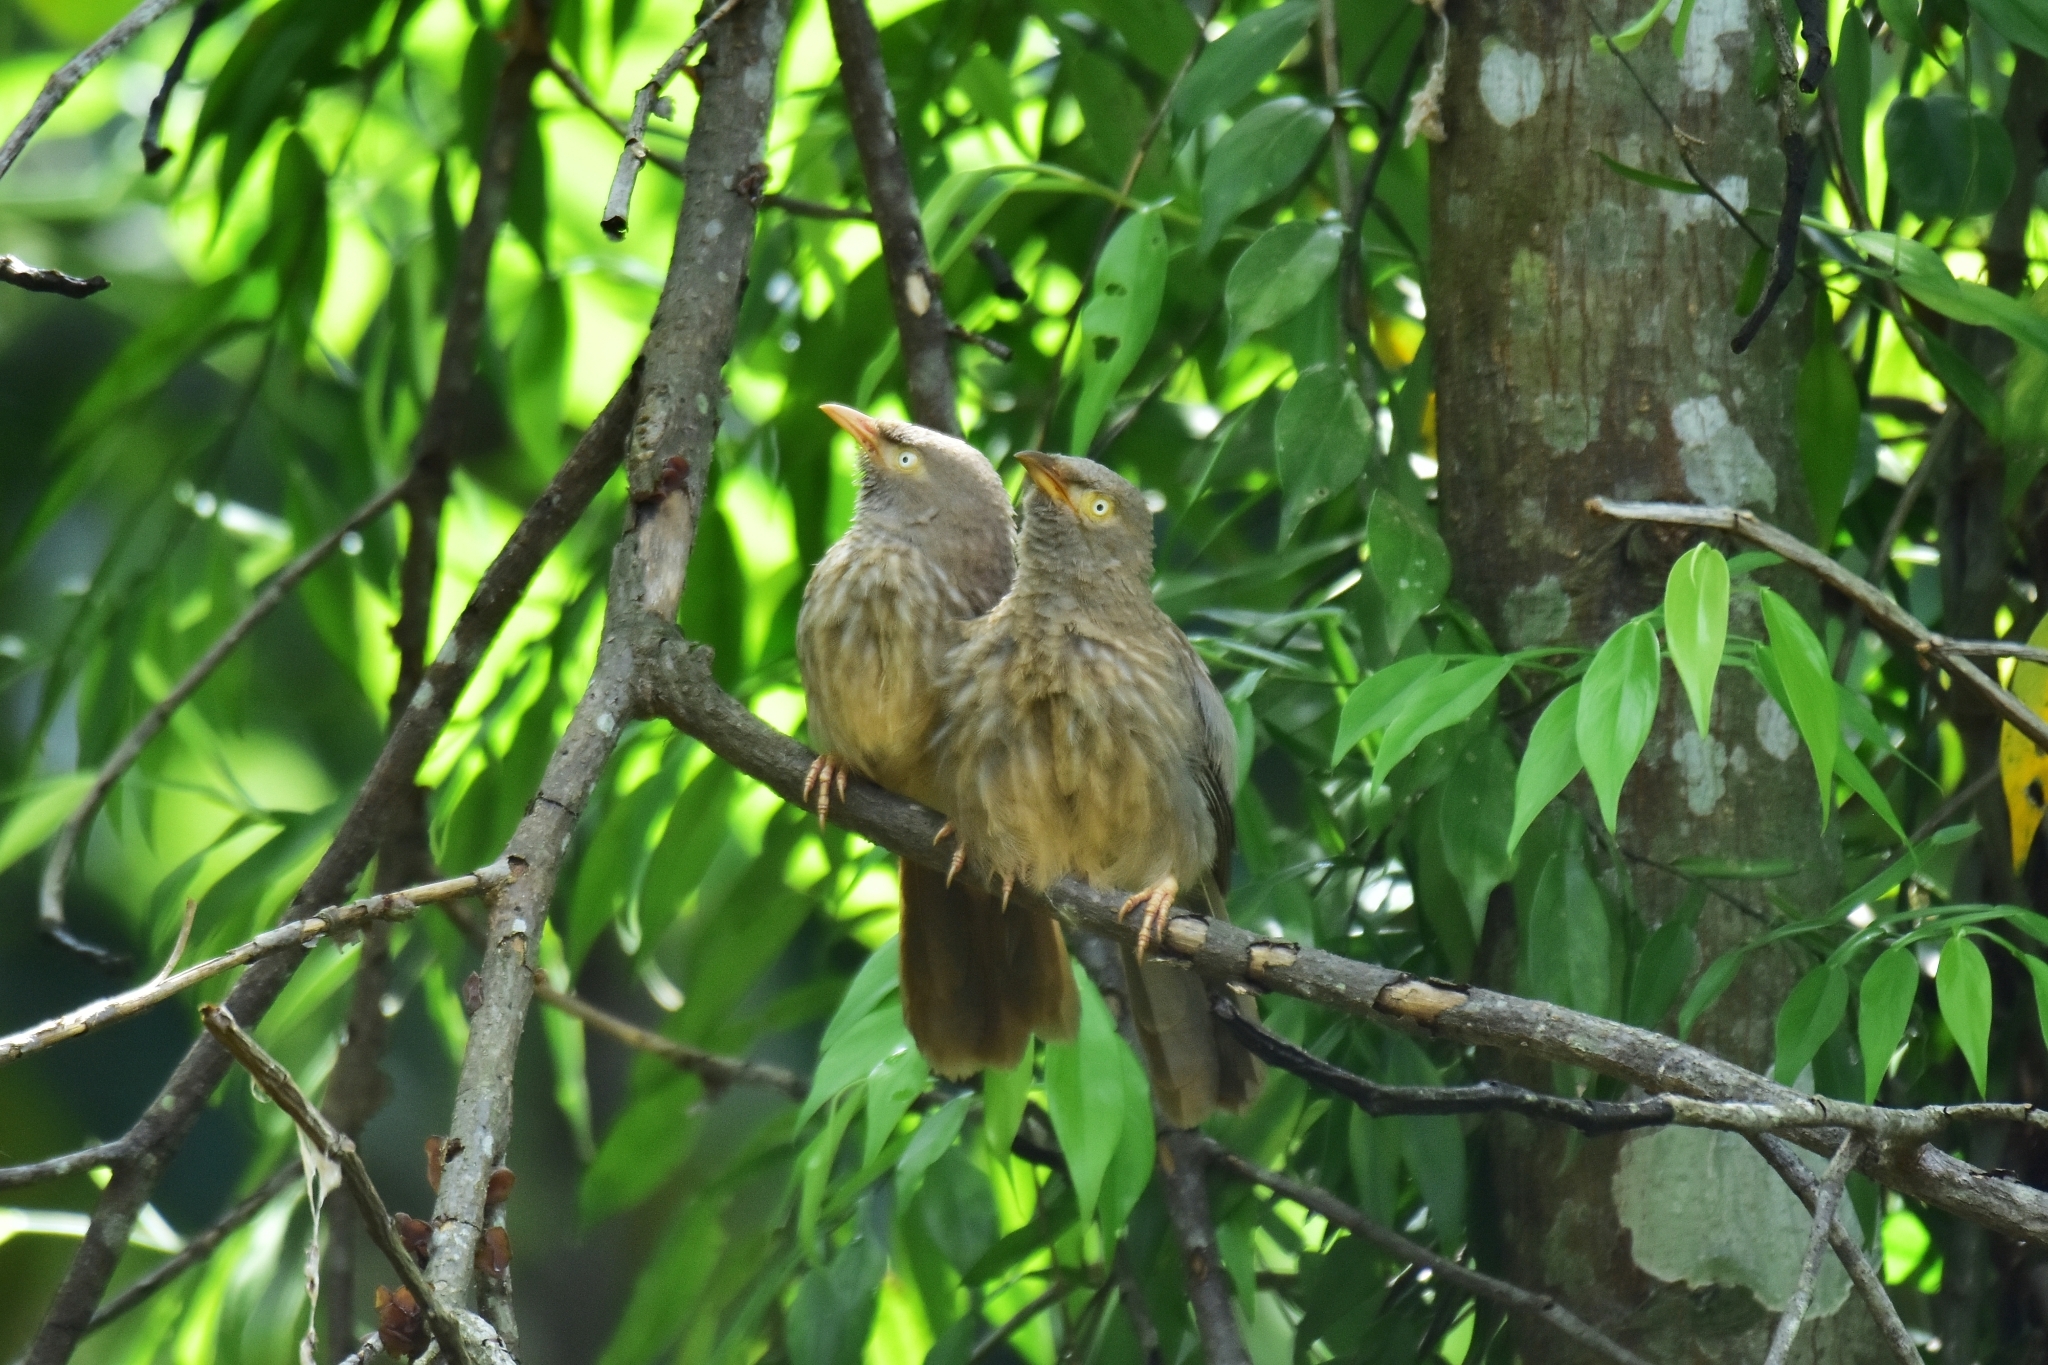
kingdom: Animalia
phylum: Chordata
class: Aves
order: Passeriformes
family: Leiothrichidae
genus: Turdoides
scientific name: Turdoides striata
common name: Jungle babbler
